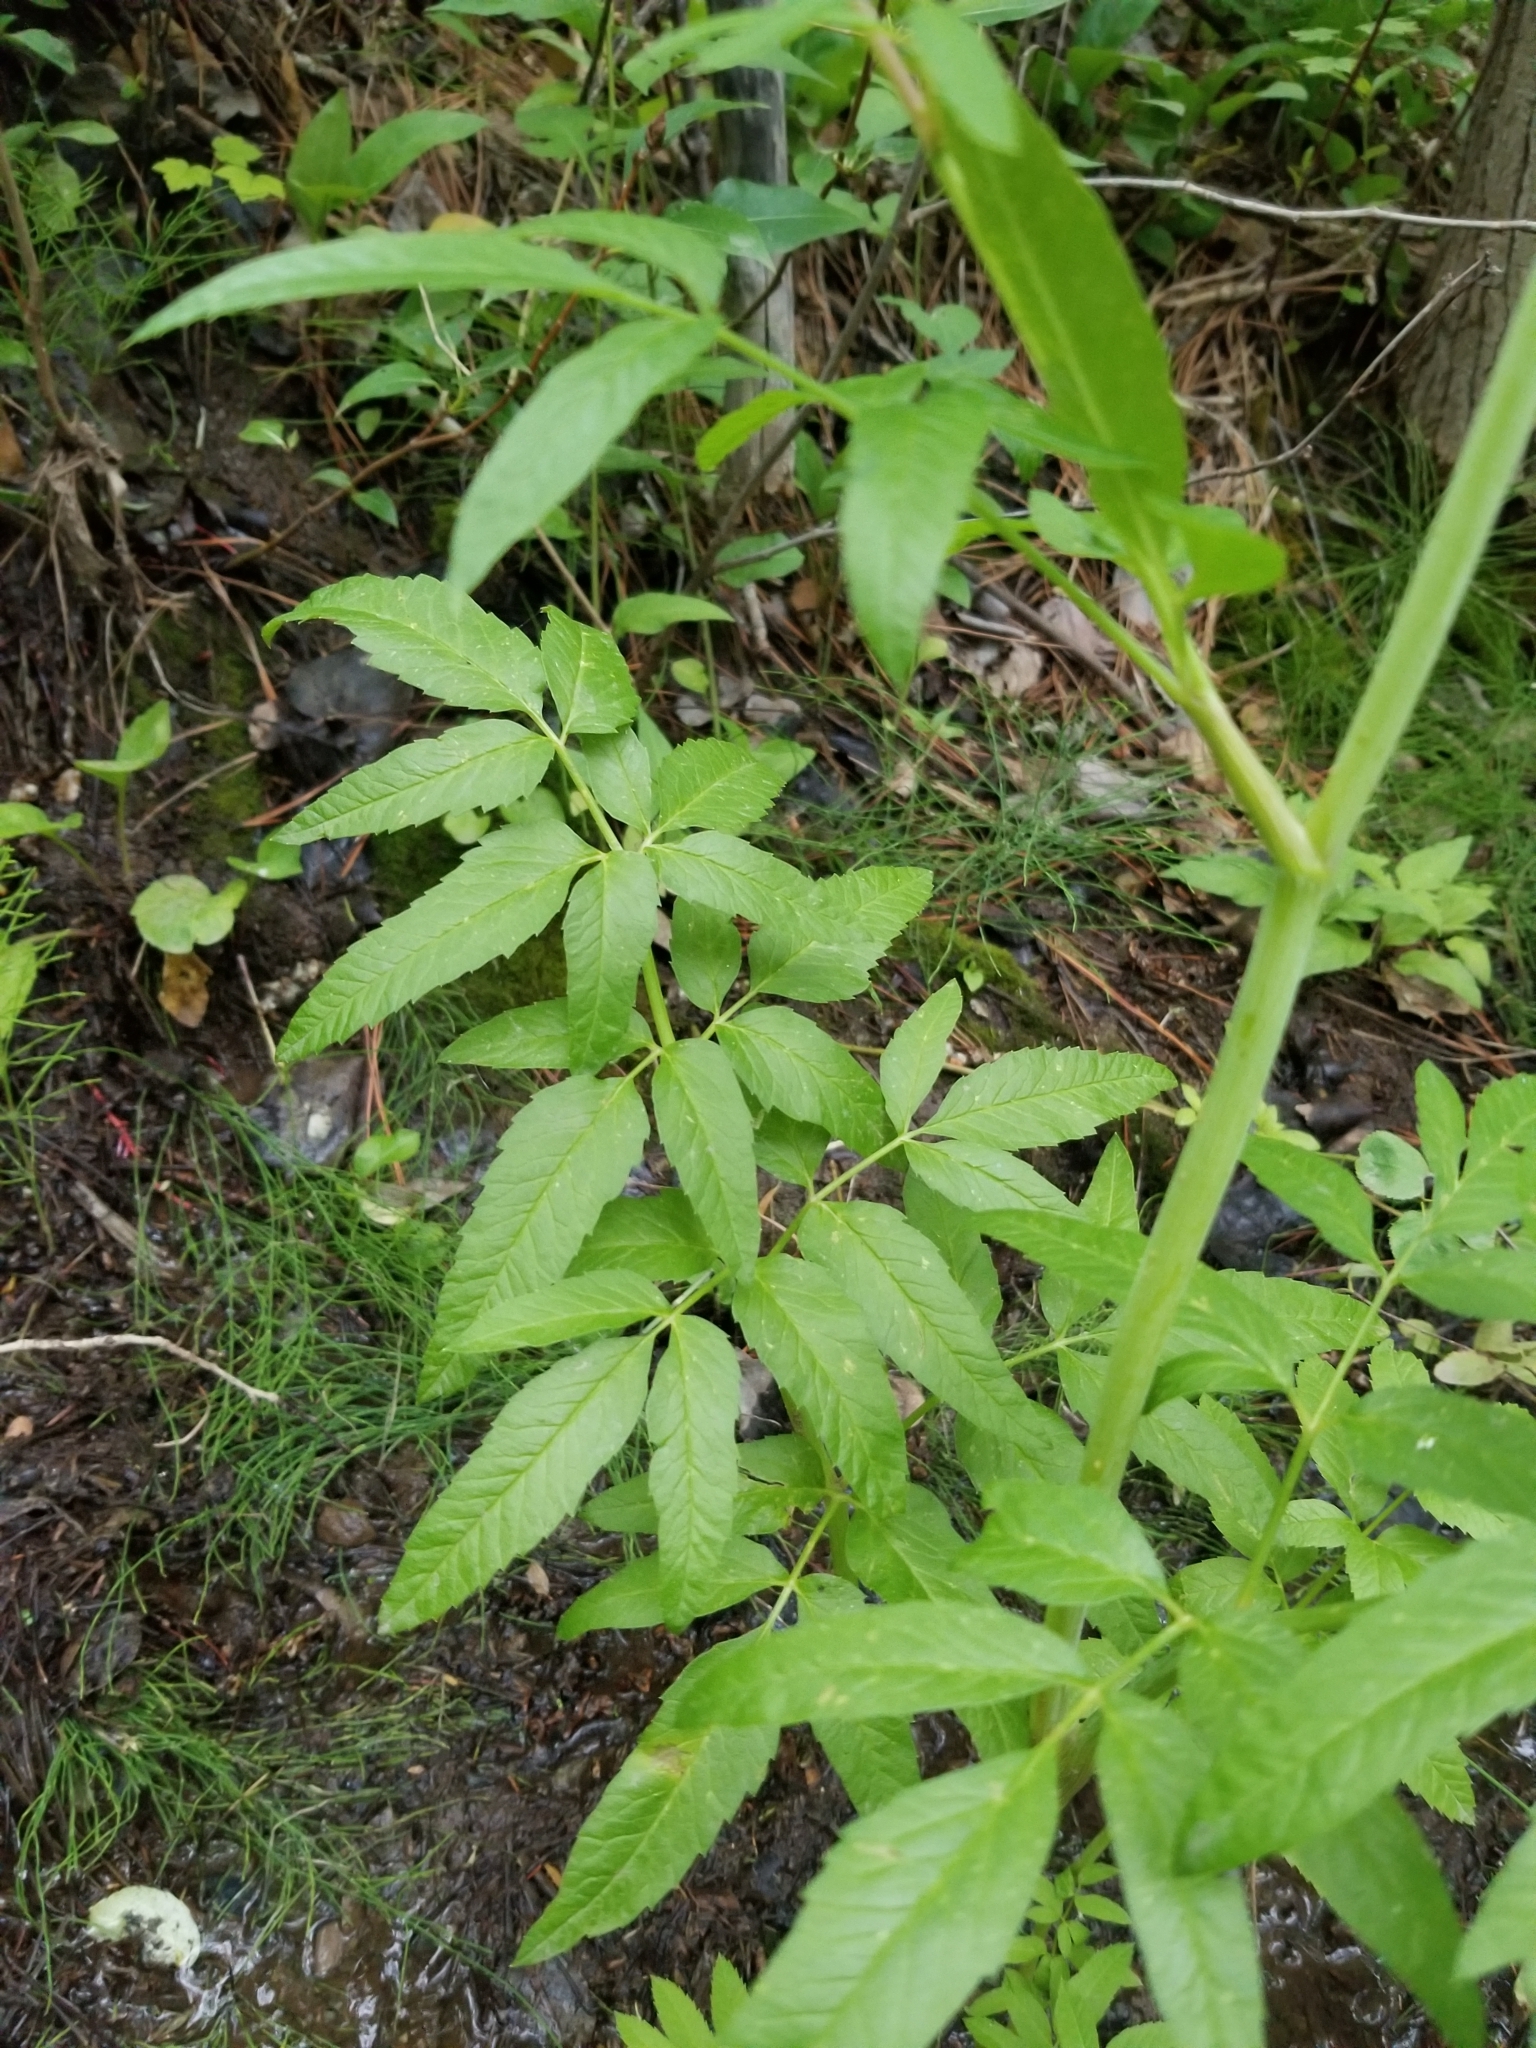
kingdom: Plantae
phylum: Tracheophyta
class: Magnoliopsida
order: Apiales
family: Apiaceae
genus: Cicuta
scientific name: Cicuta maculata
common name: Spotted cowbane
